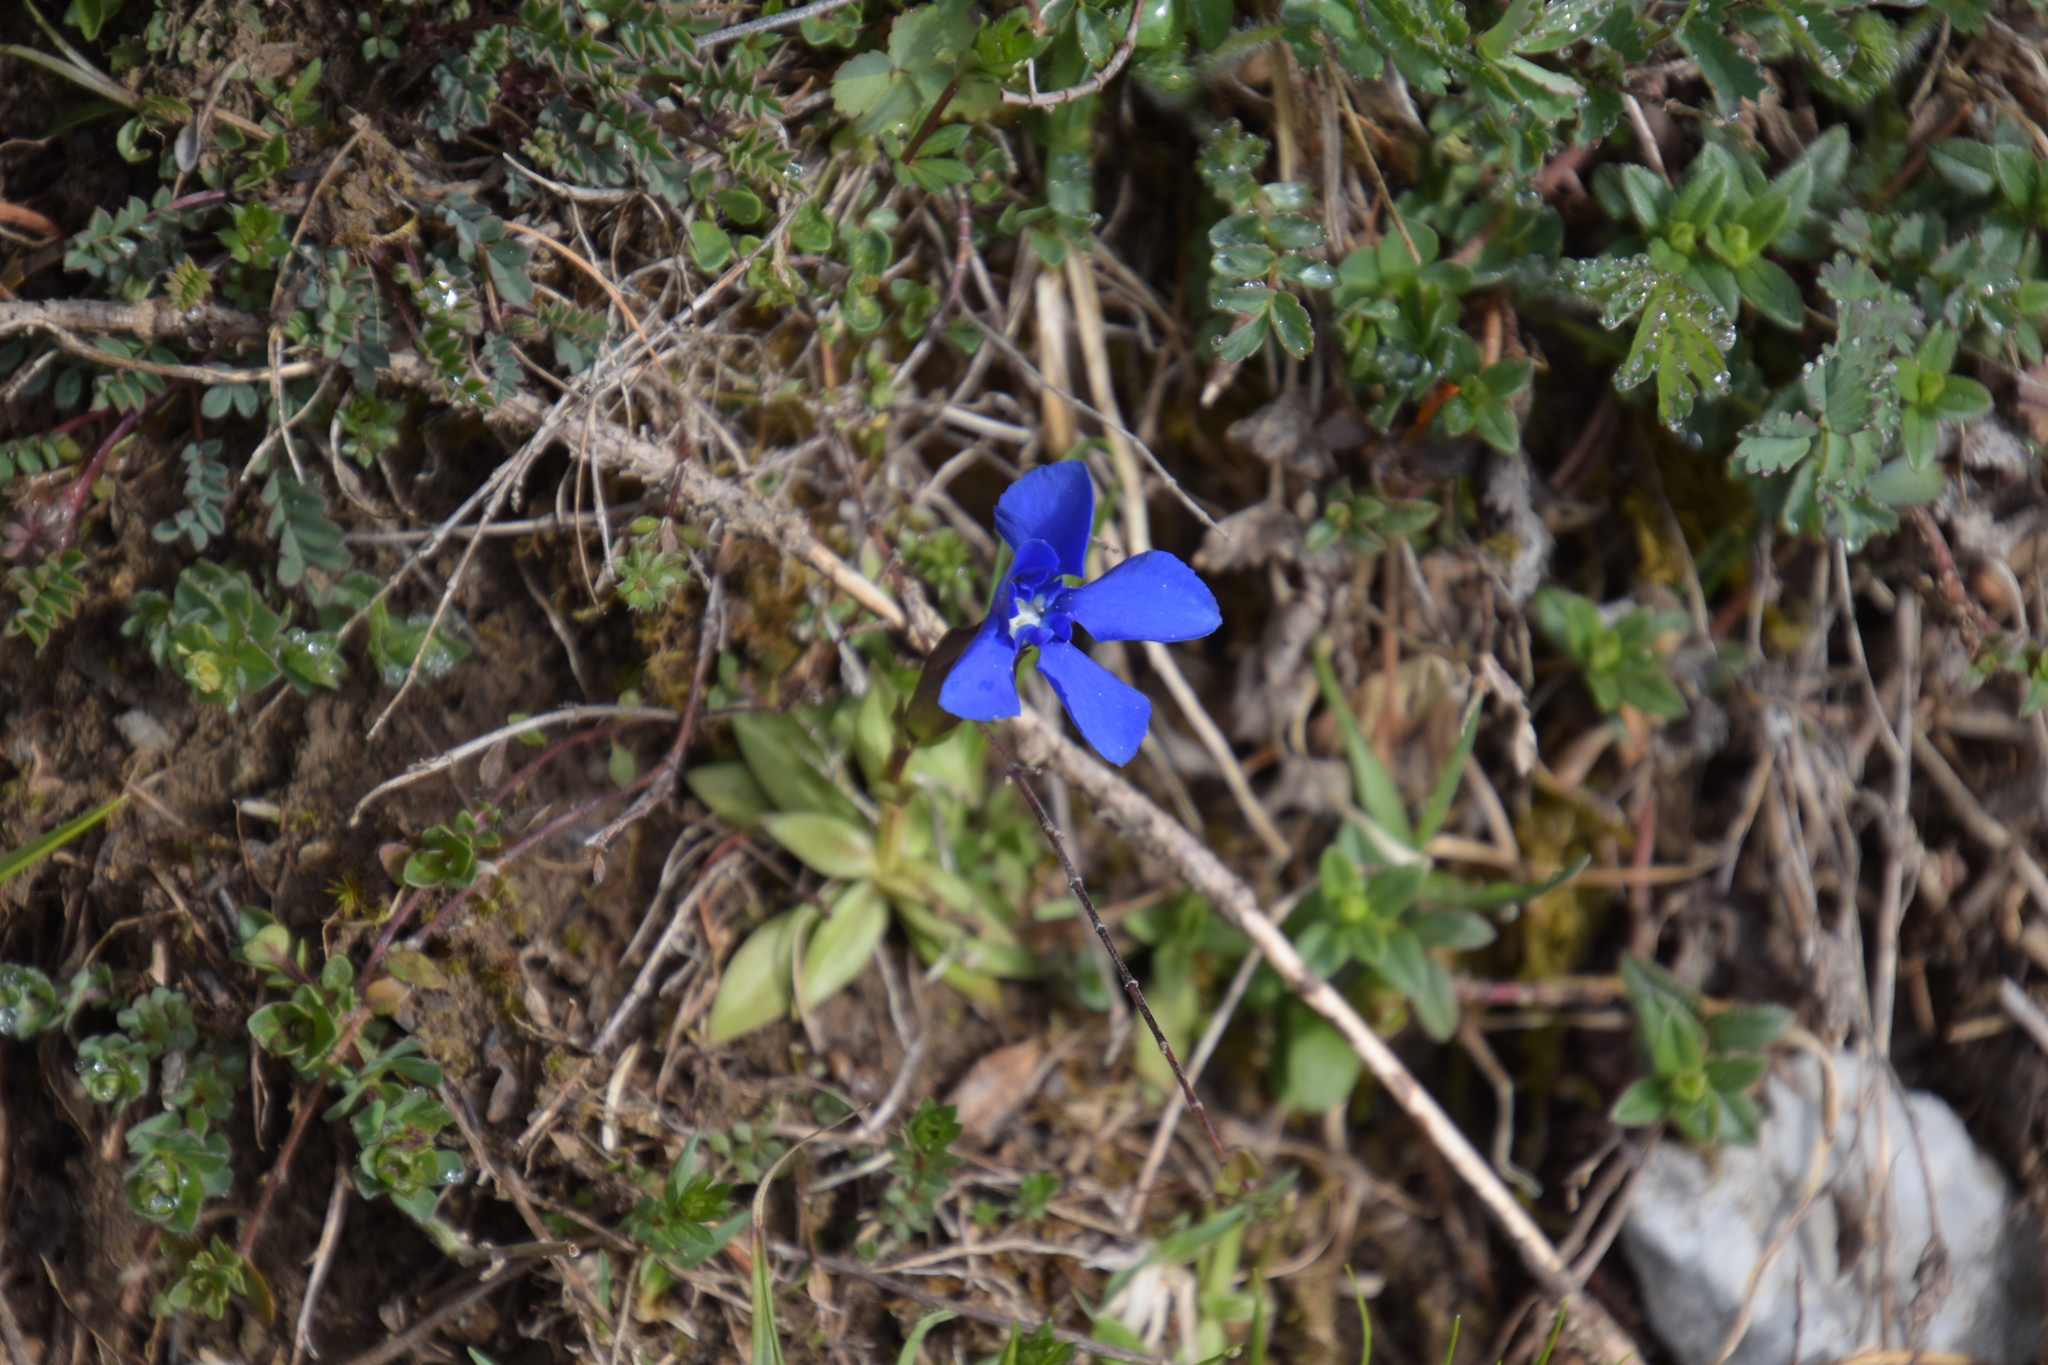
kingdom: Plantae
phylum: Tracheophyta
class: Magnoliopsida
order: Gentianales
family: Gentianaceae
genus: Gentiana
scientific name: Gentiana verna
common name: Spring gentian
